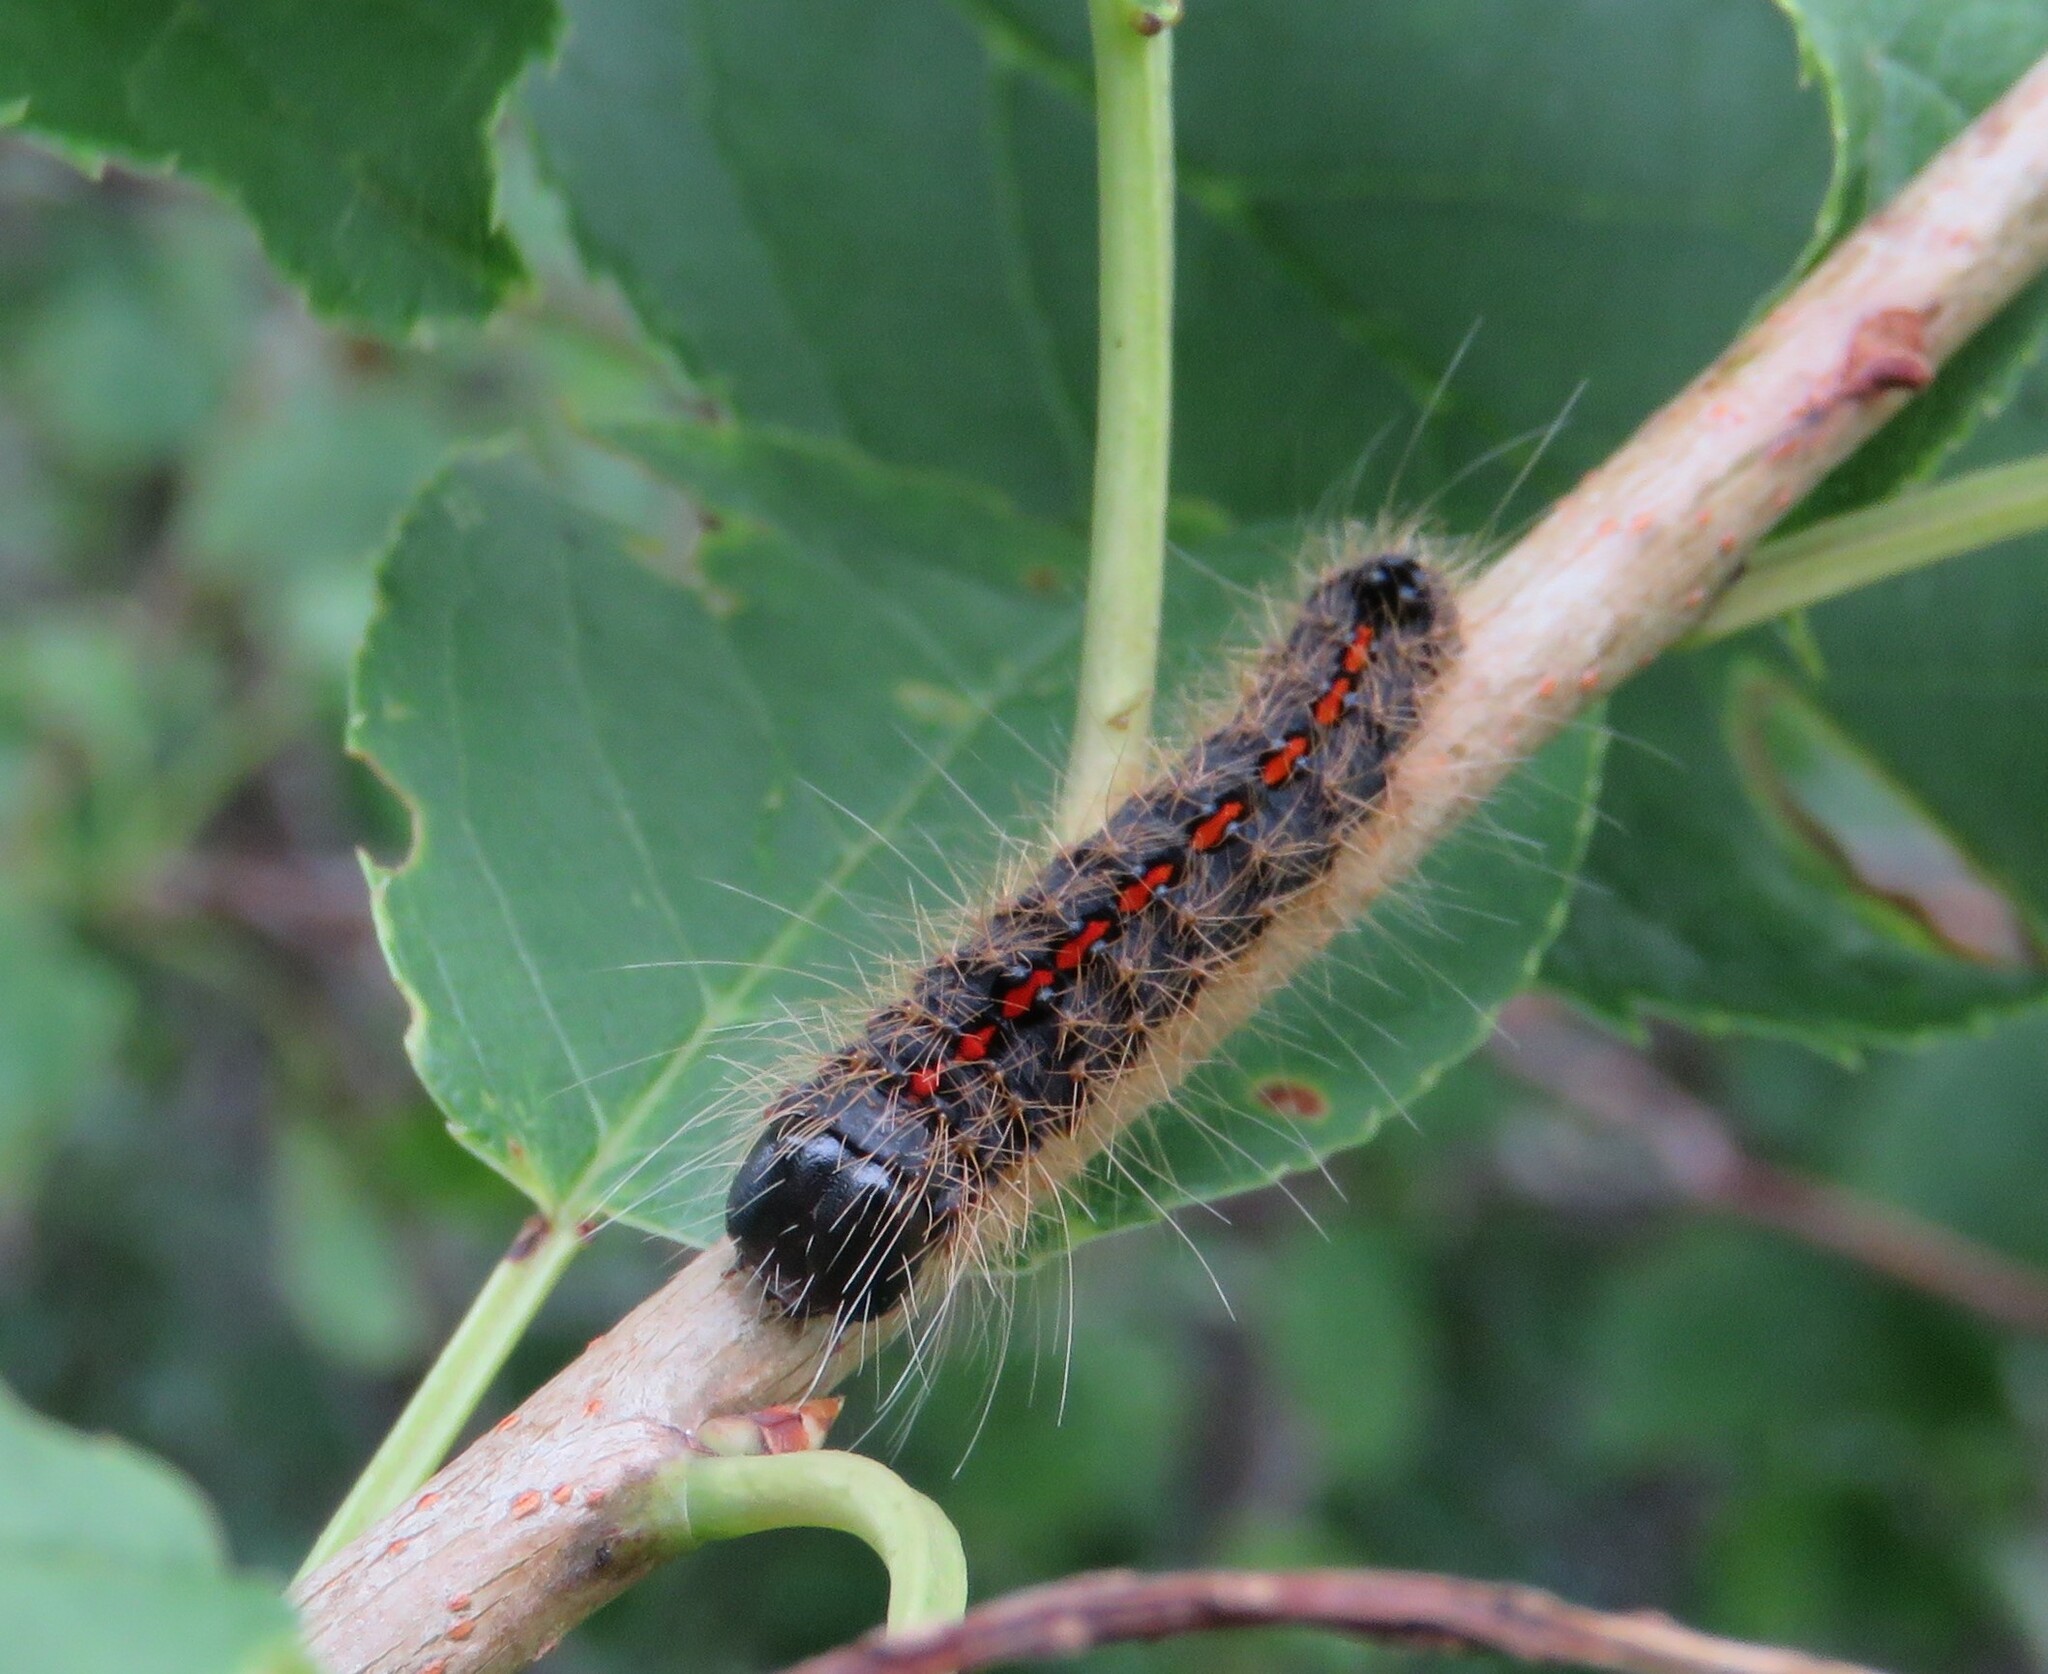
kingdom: Animalia
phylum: Arthropoda
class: Insecta
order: Lepidoptera
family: Noctuidae
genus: Acronicta
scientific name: Acronicta hasta
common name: Cherry dagger
